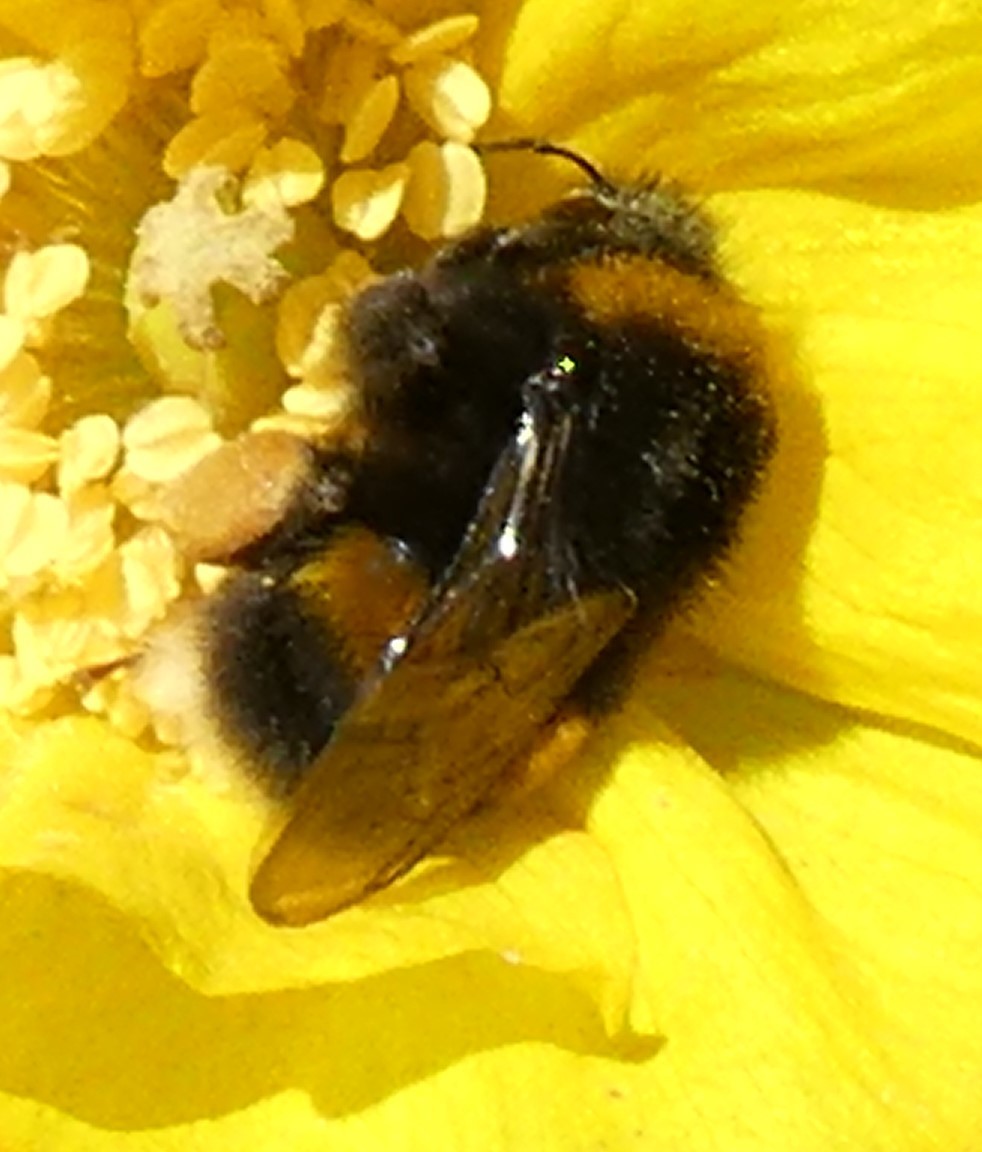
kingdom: Animalia
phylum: Arthropoda
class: Insecta
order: Hymenoptera
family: Apidae
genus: Bombus
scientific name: Bombus terrestris
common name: Buff-tailed bumblebee
